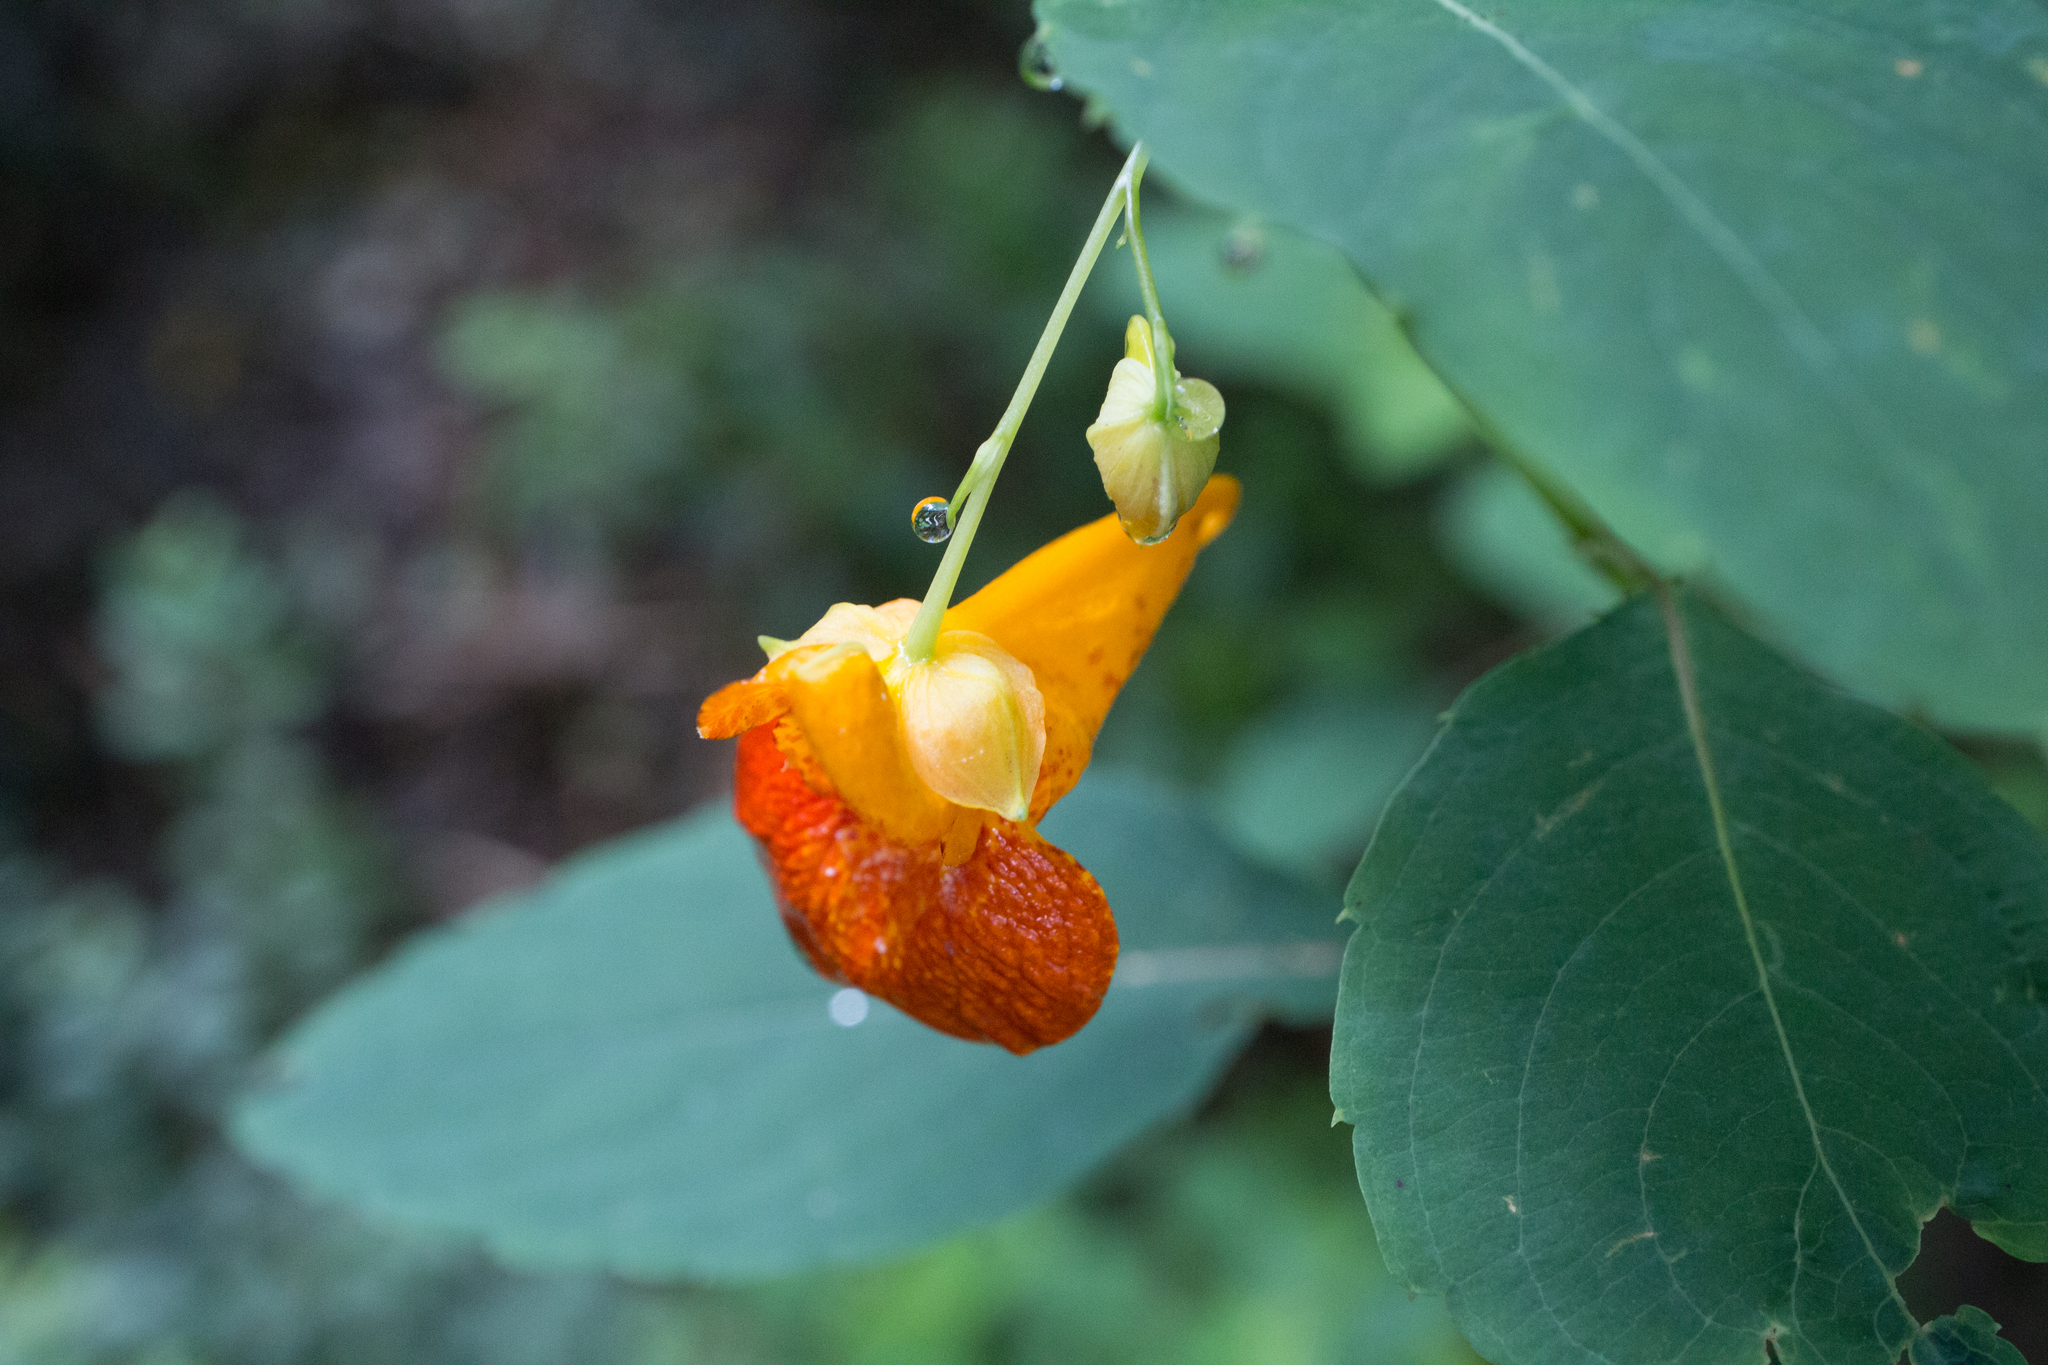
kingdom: Plantae
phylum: Tracheophyta
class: Magnoliopsida
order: Ericales
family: Balsaminaceae
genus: Impatiens
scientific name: Impatiens capensis
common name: Orange balsam
